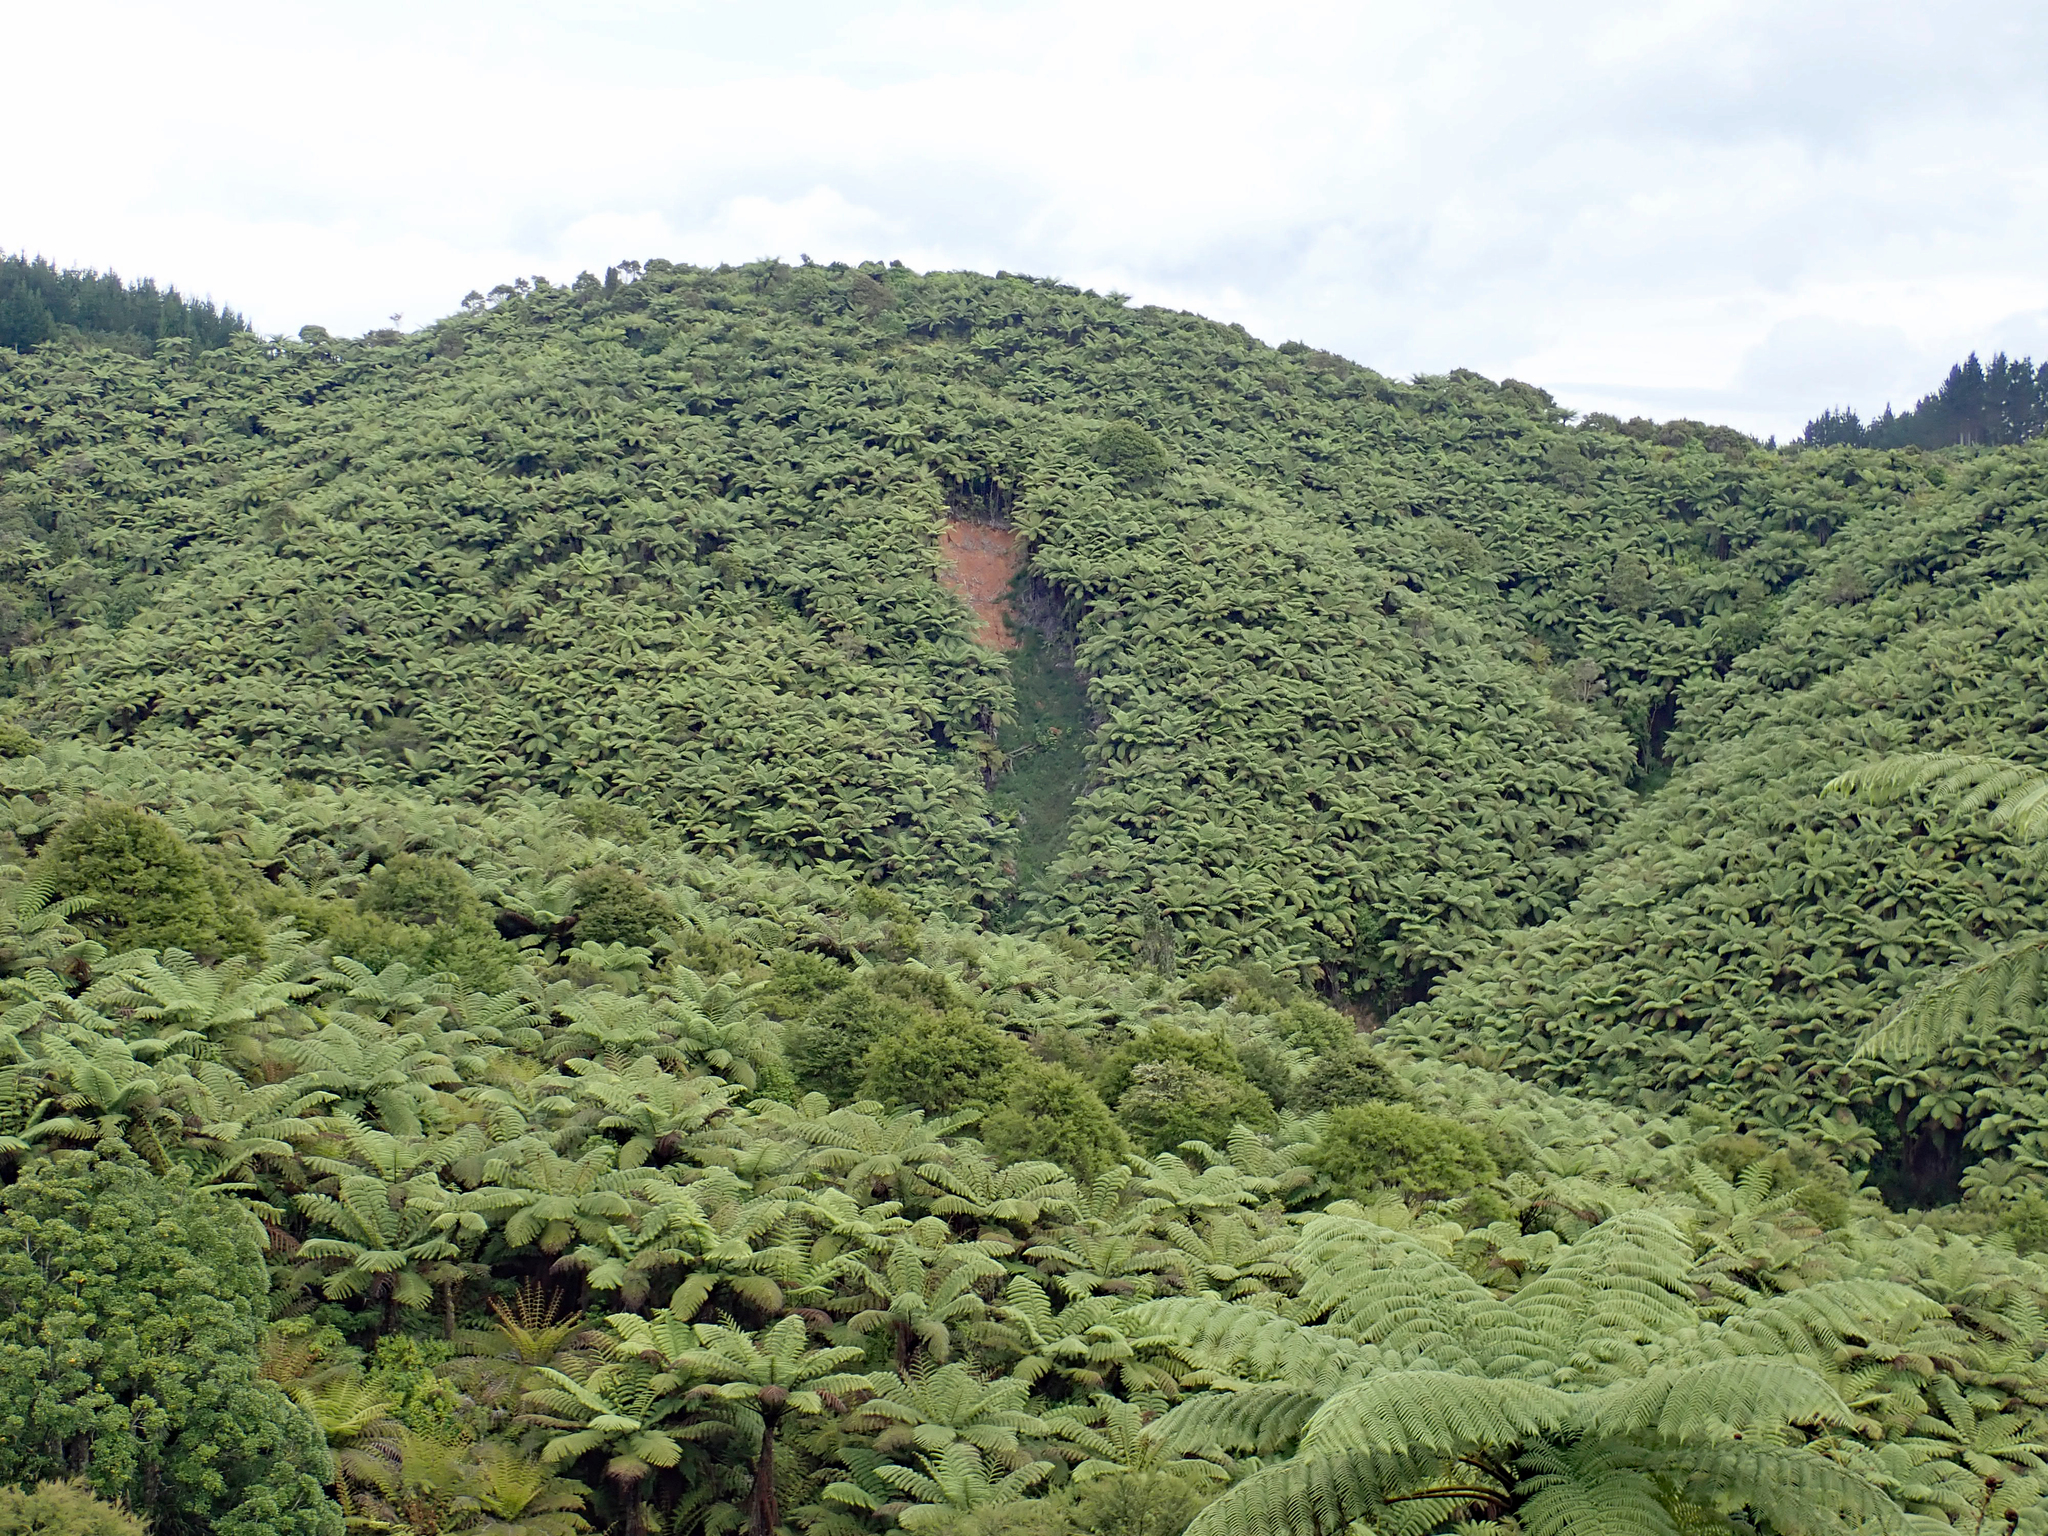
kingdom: Plantae
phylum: Tracheophyta
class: Polypodiopsida
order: Cyatheales
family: Cyatheaceae
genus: Sphaeropteris
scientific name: Sphaeropteris medullaris
